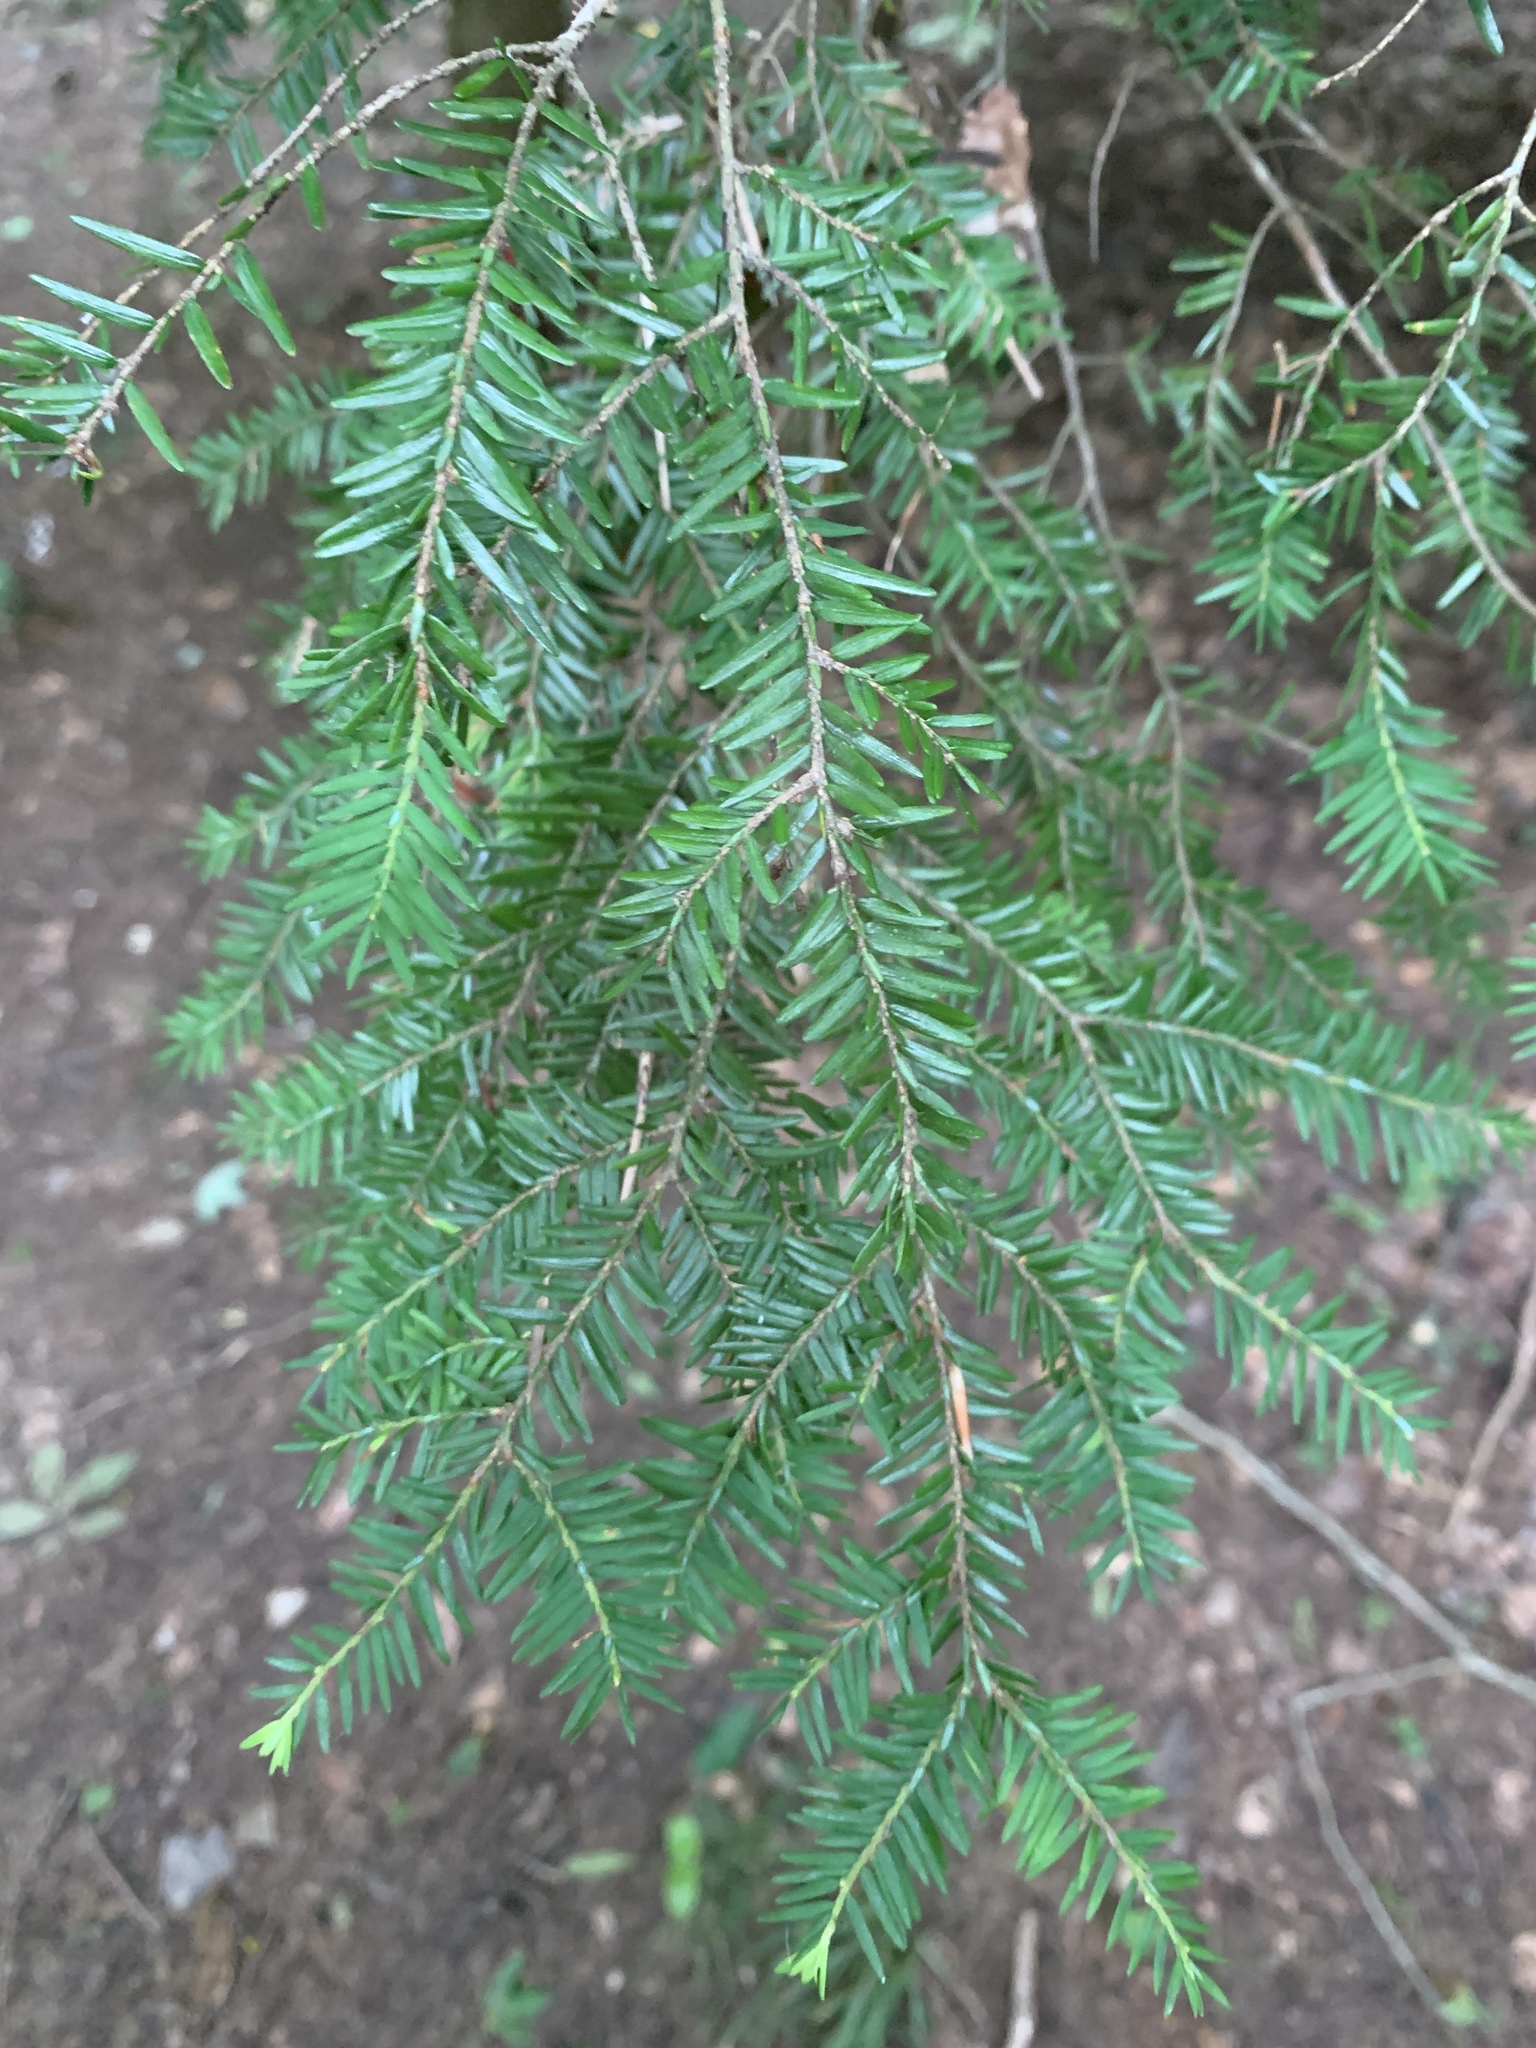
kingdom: Plantae
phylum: Tracheophyta
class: Pinopsida
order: Pinales
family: Pinaceae
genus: Tsuga
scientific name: Tsuga canadensis
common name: Eastern hemlock
